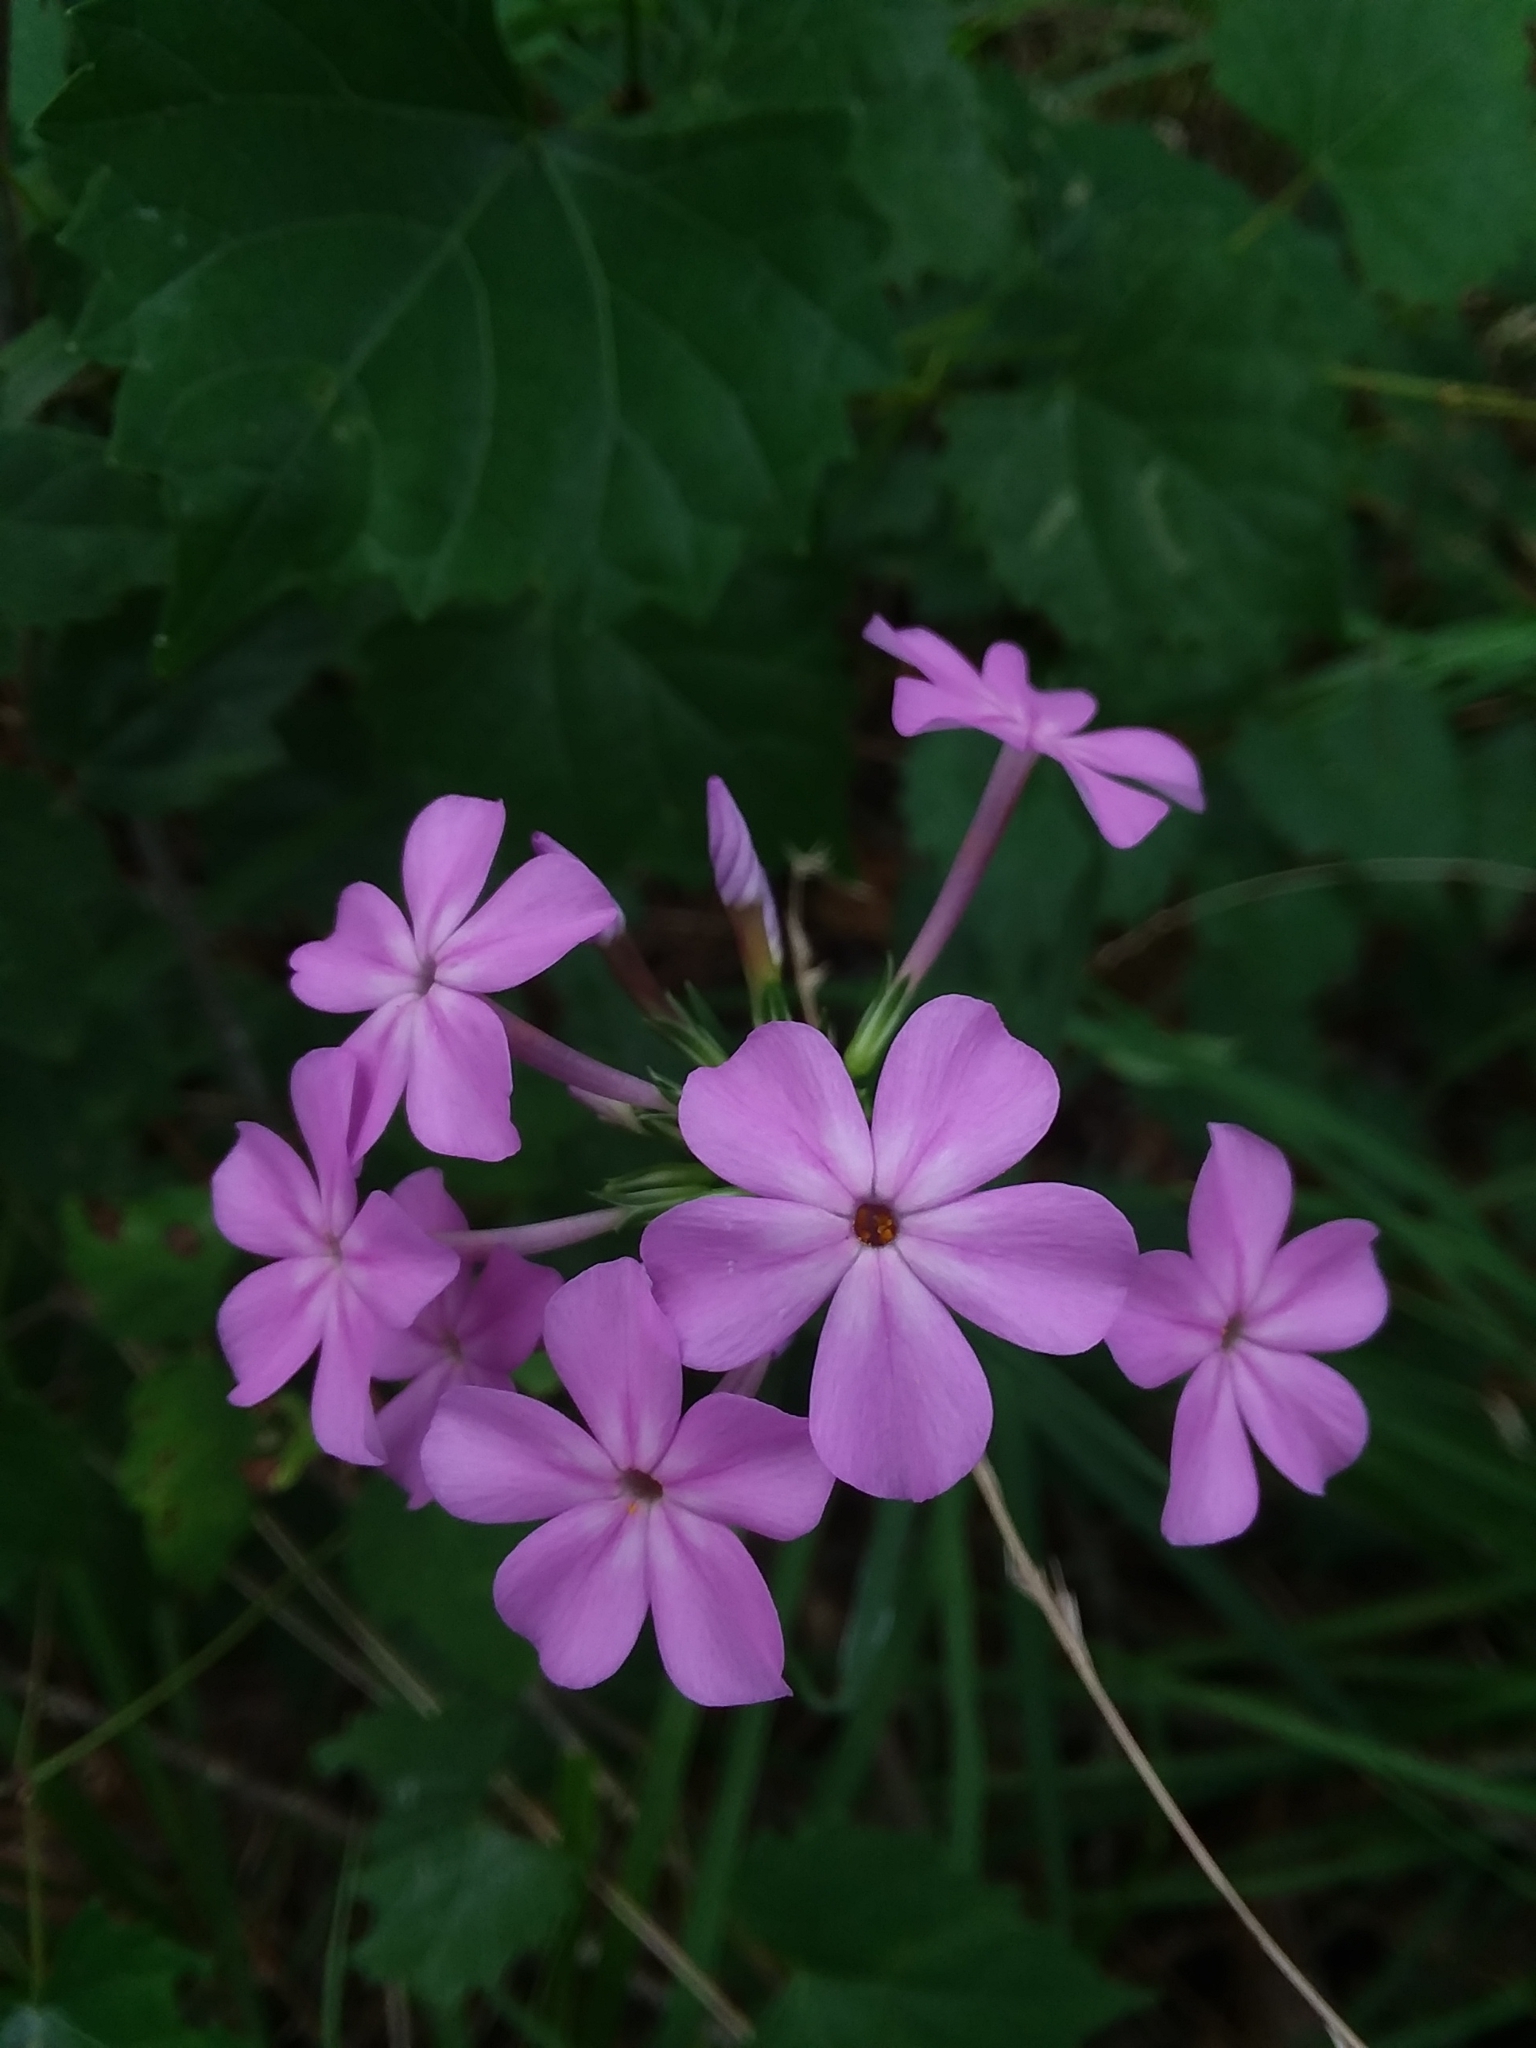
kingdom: Plantae
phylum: Tracheophyta
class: Magnoliopsida
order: Ericales
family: Polemoniaceae
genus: Phlox
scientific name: Phlox carolina
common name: Thick-leaf phlox
